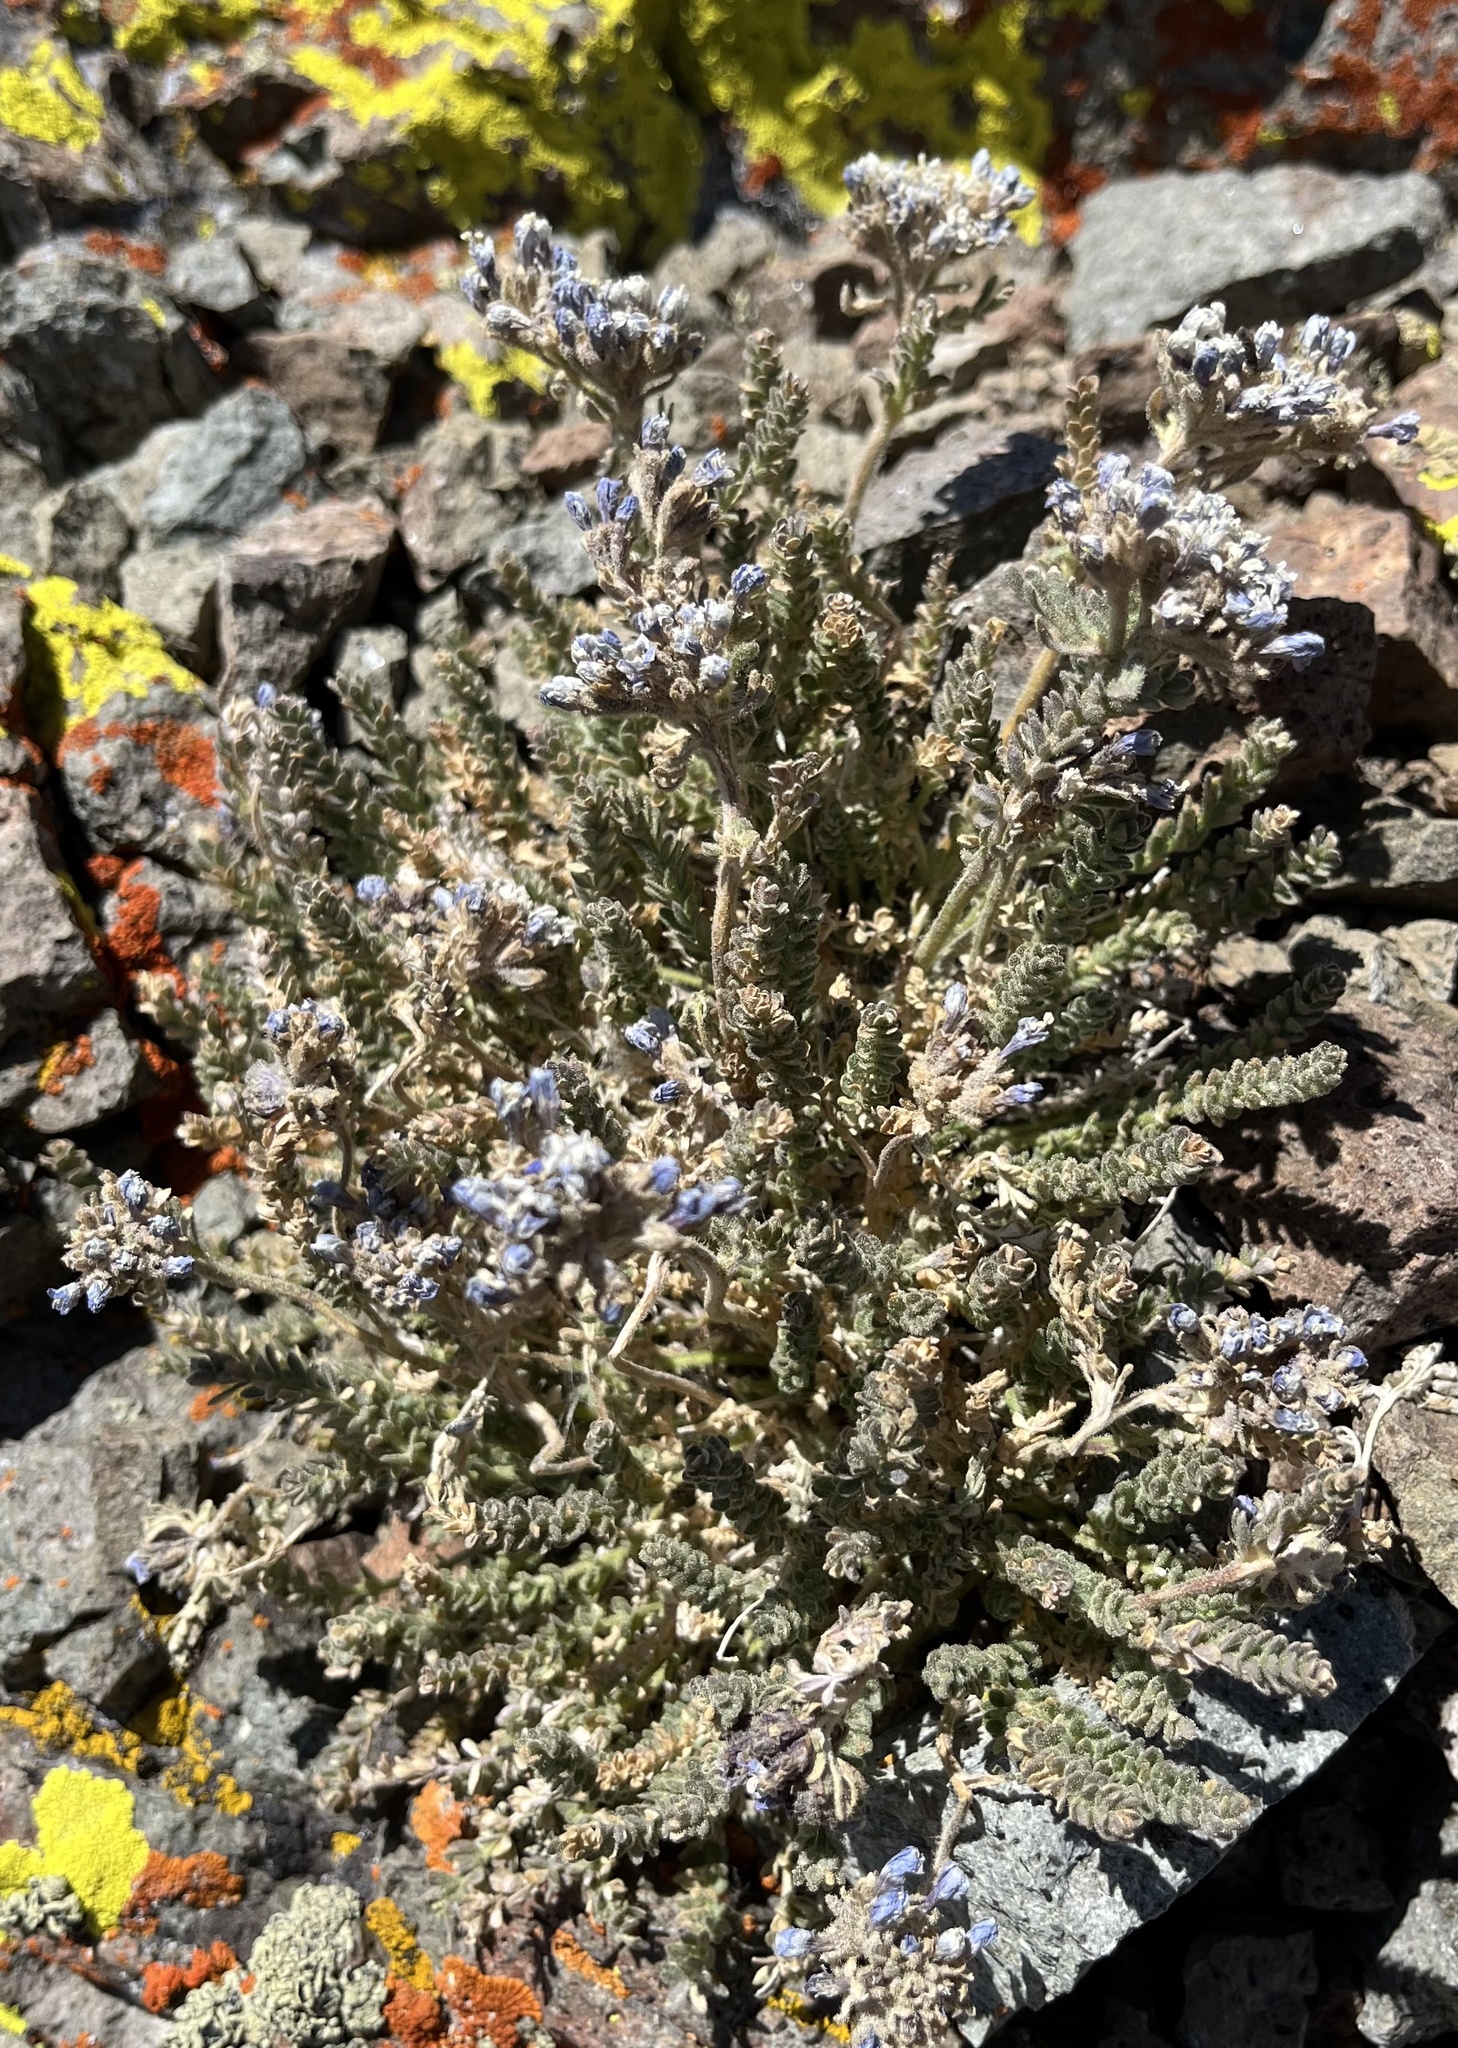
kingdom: Plantae
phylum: Tracheophyta
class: Magnoliopsida
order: Ericales
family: Polemoniaceae
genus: Polemonium
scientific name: Polemonium eximium
